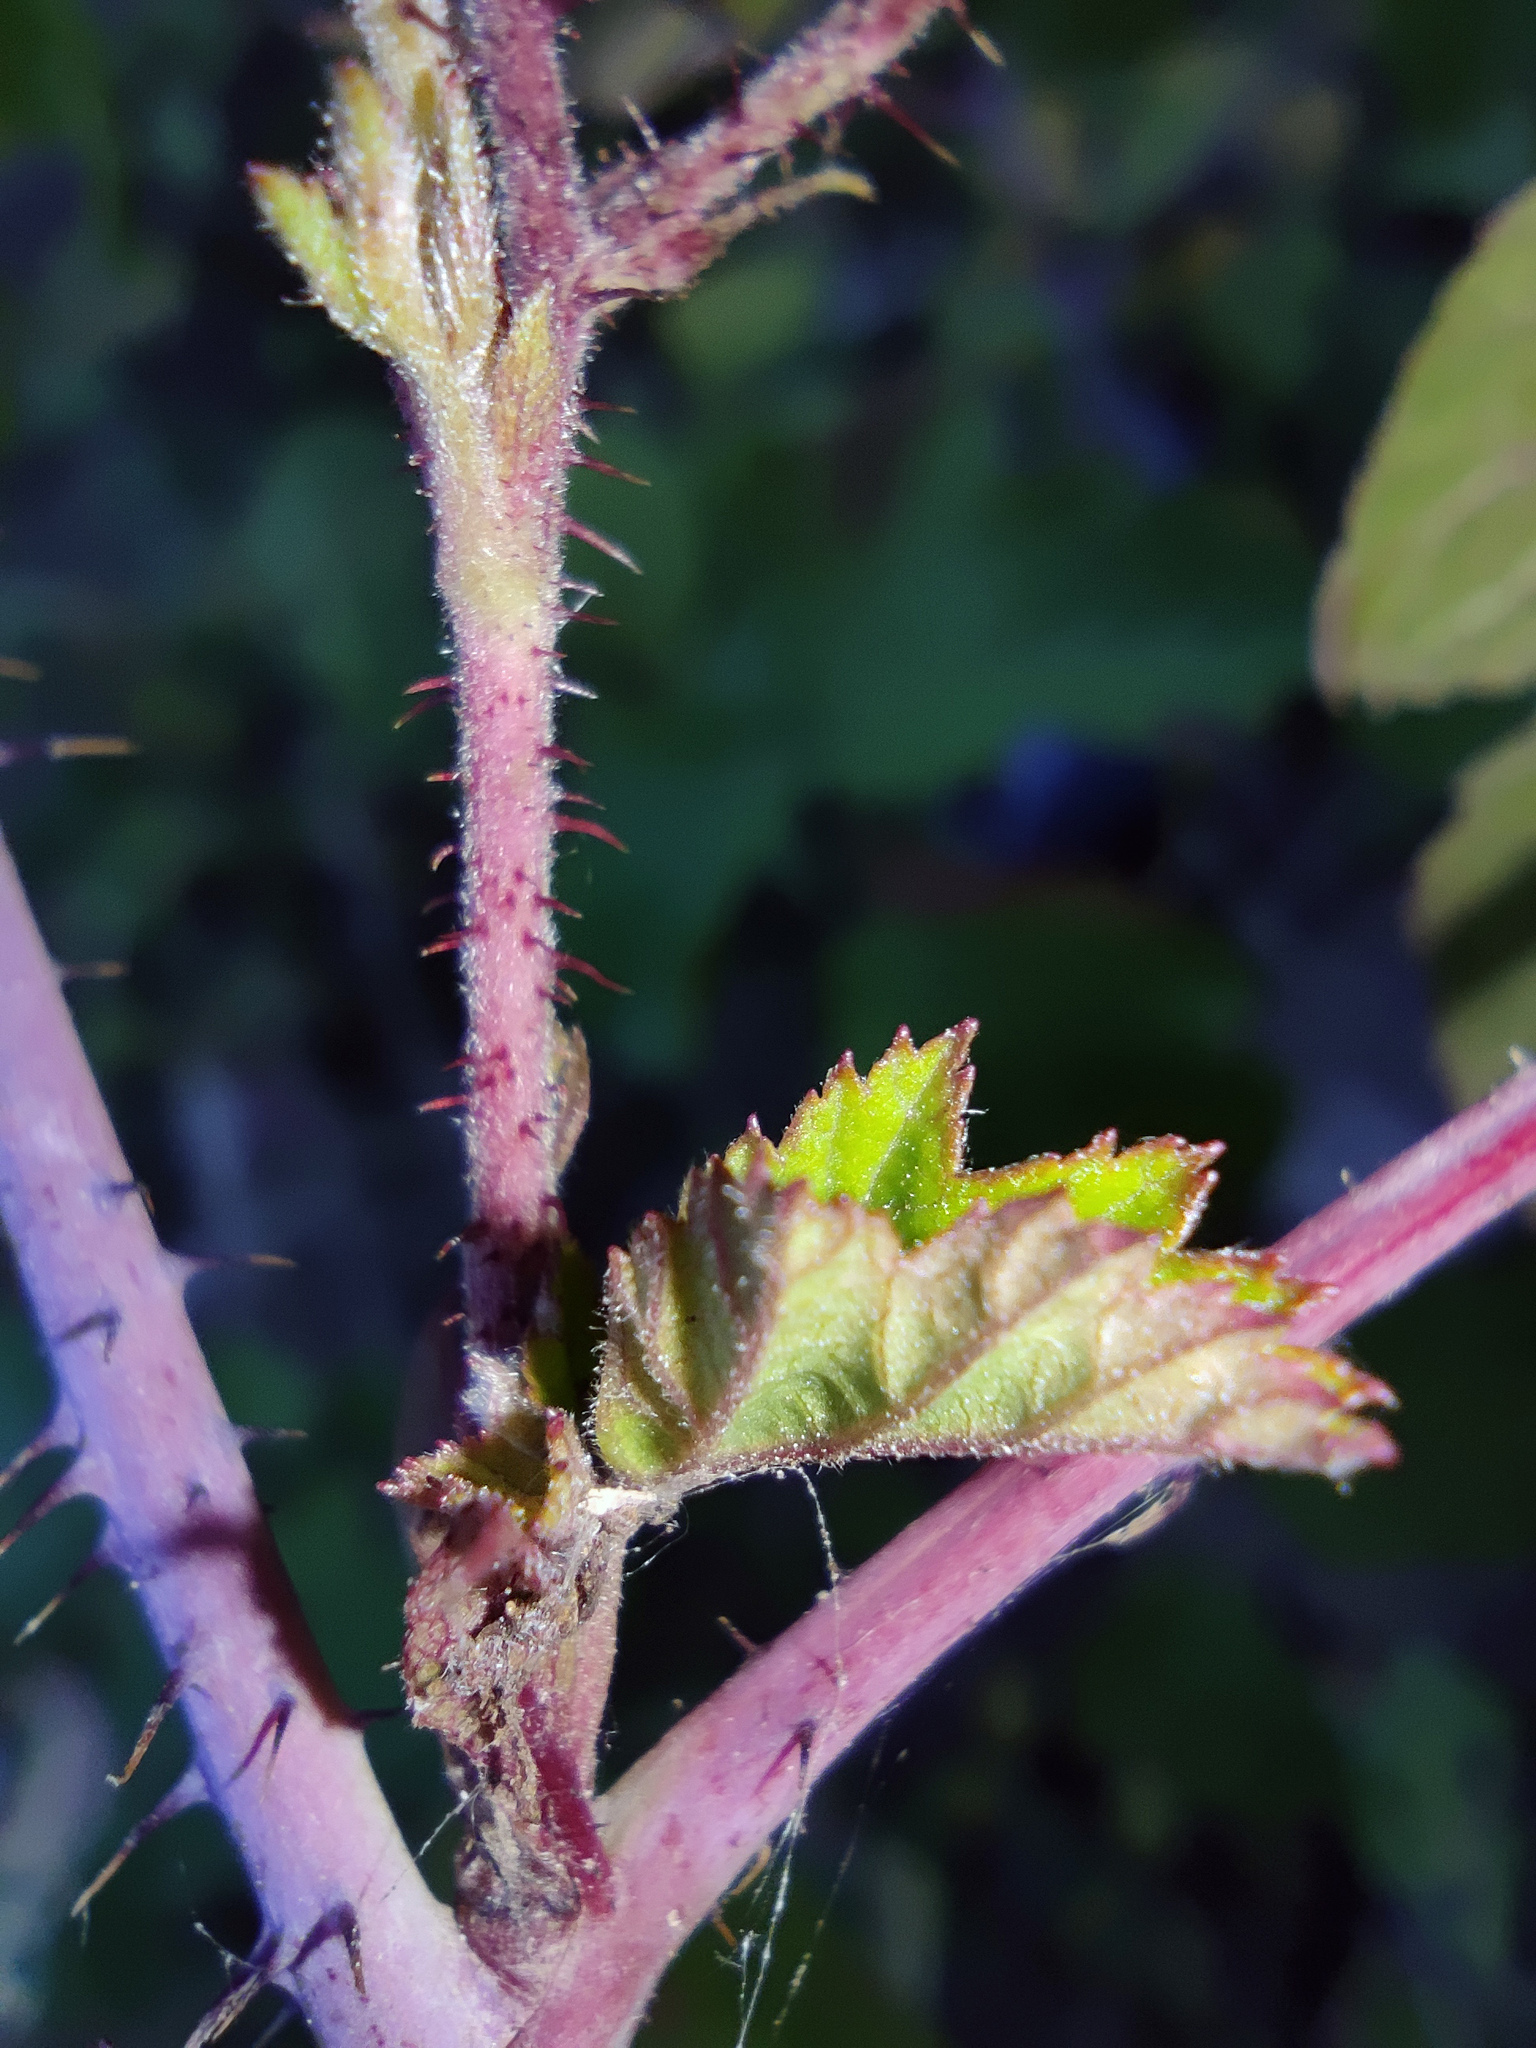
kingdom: Plantae
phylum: Tracheophyta
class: Magnoliopsida
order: Rosales
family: Rosaceae
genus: Rubus
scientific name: Rubus caesius
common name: Dewberry
